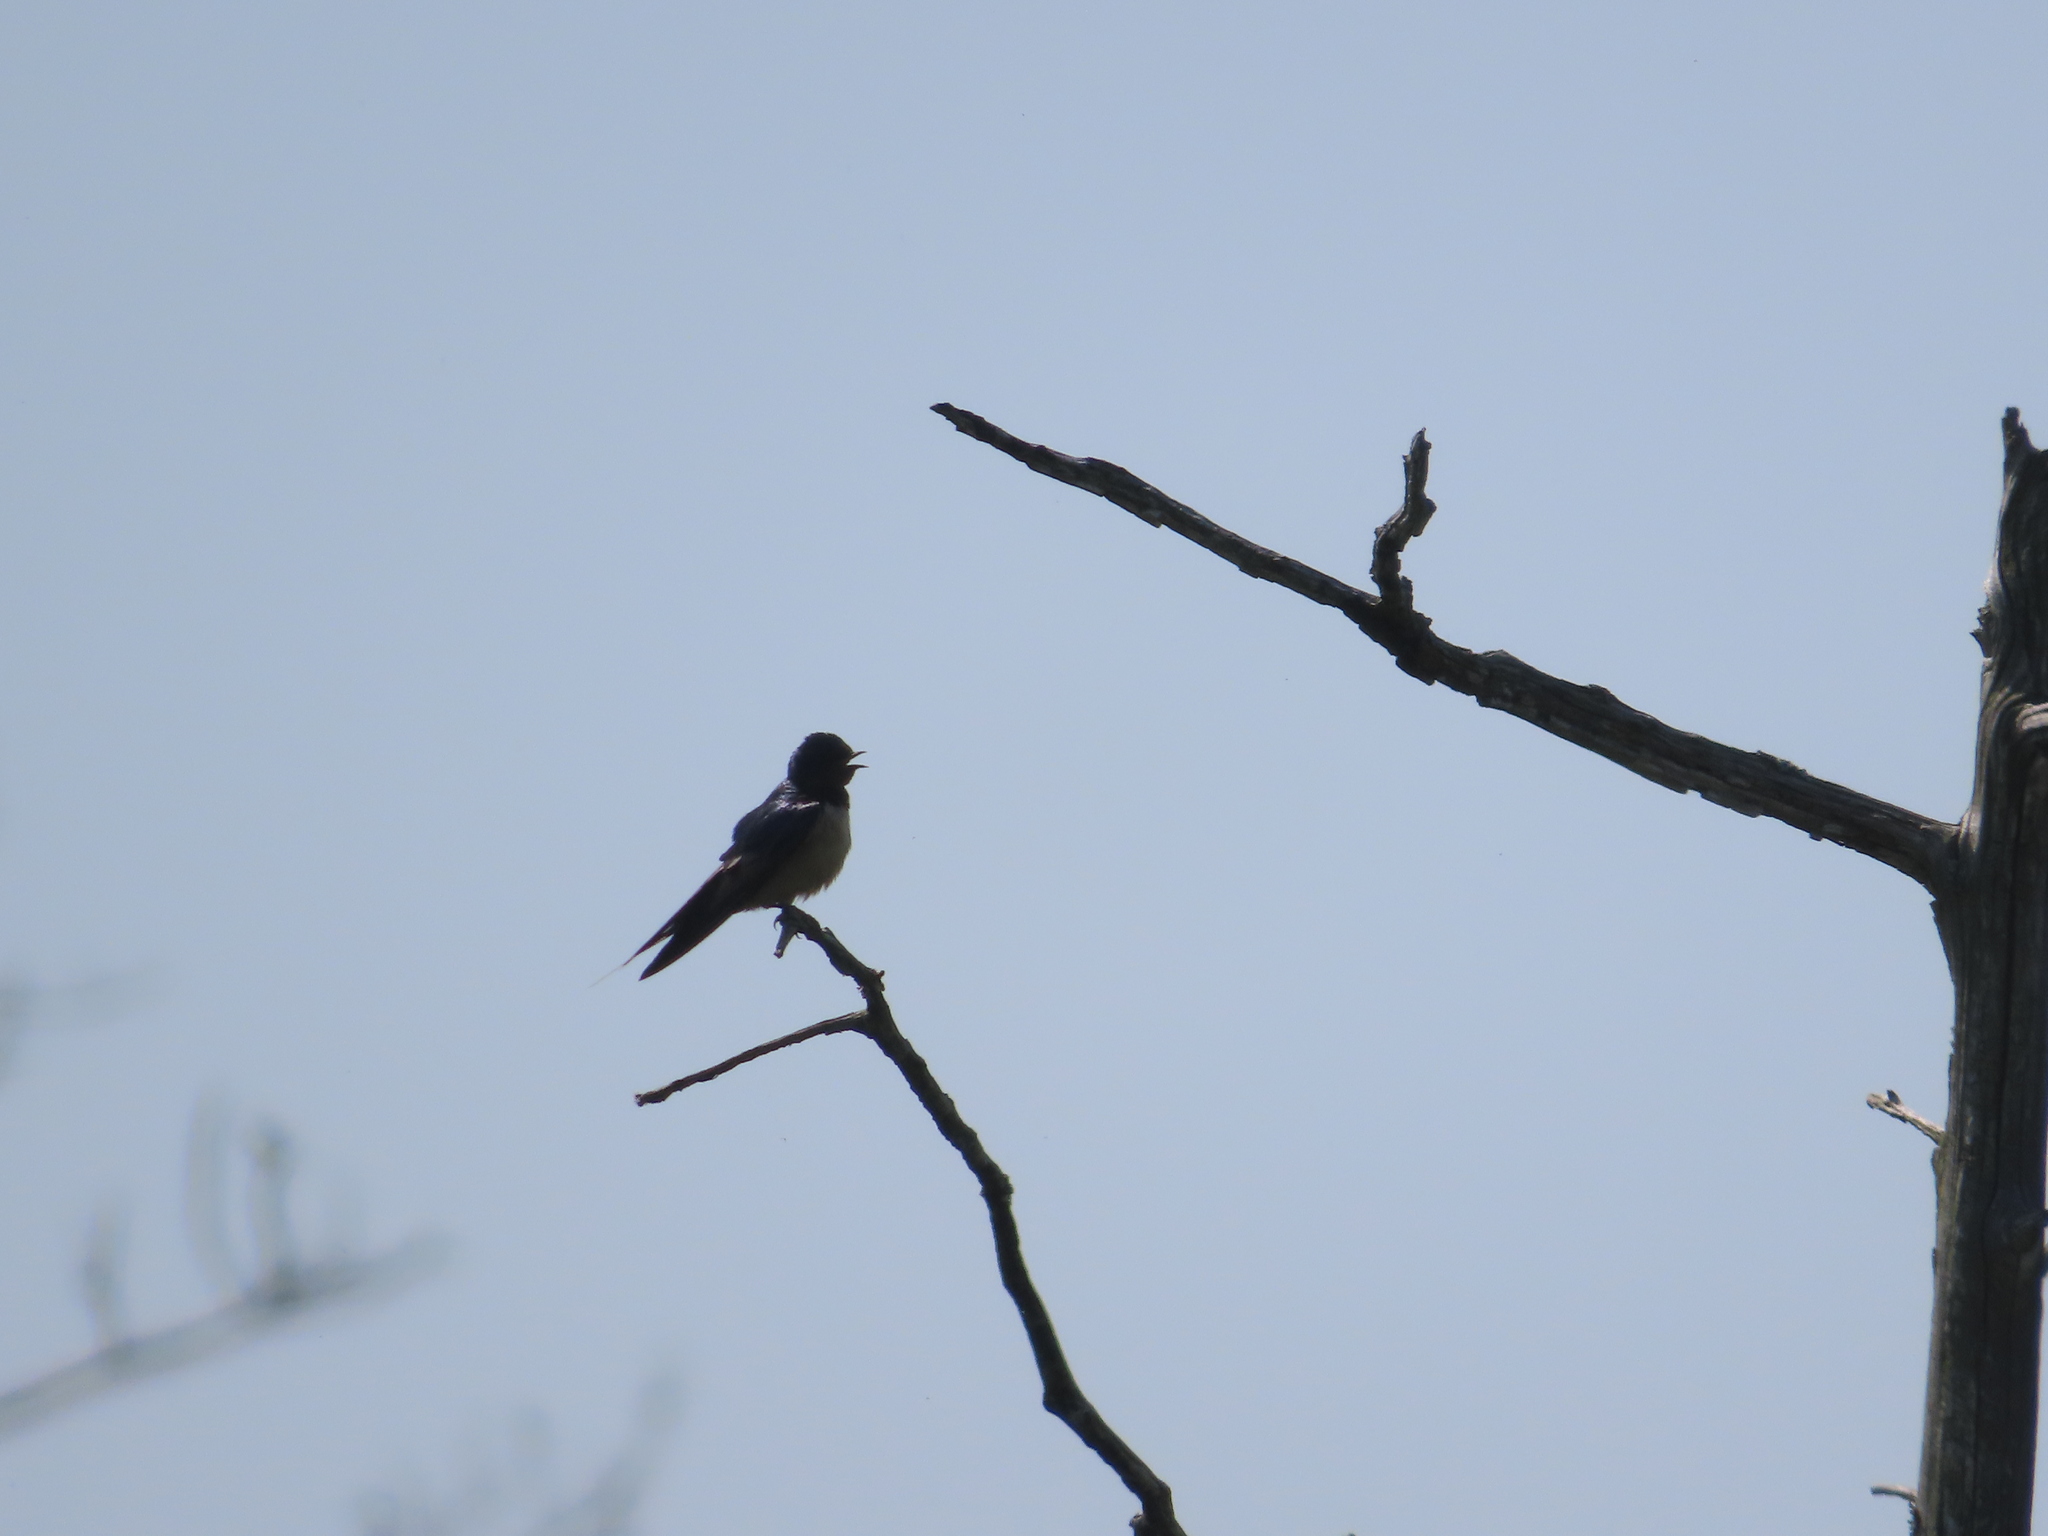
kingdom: Animalia
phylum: Chordata
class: Aves
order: Passeriformes
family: Hirundinidae
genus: Hirundo
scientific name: Hirundo rustica
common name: Barn swallow
